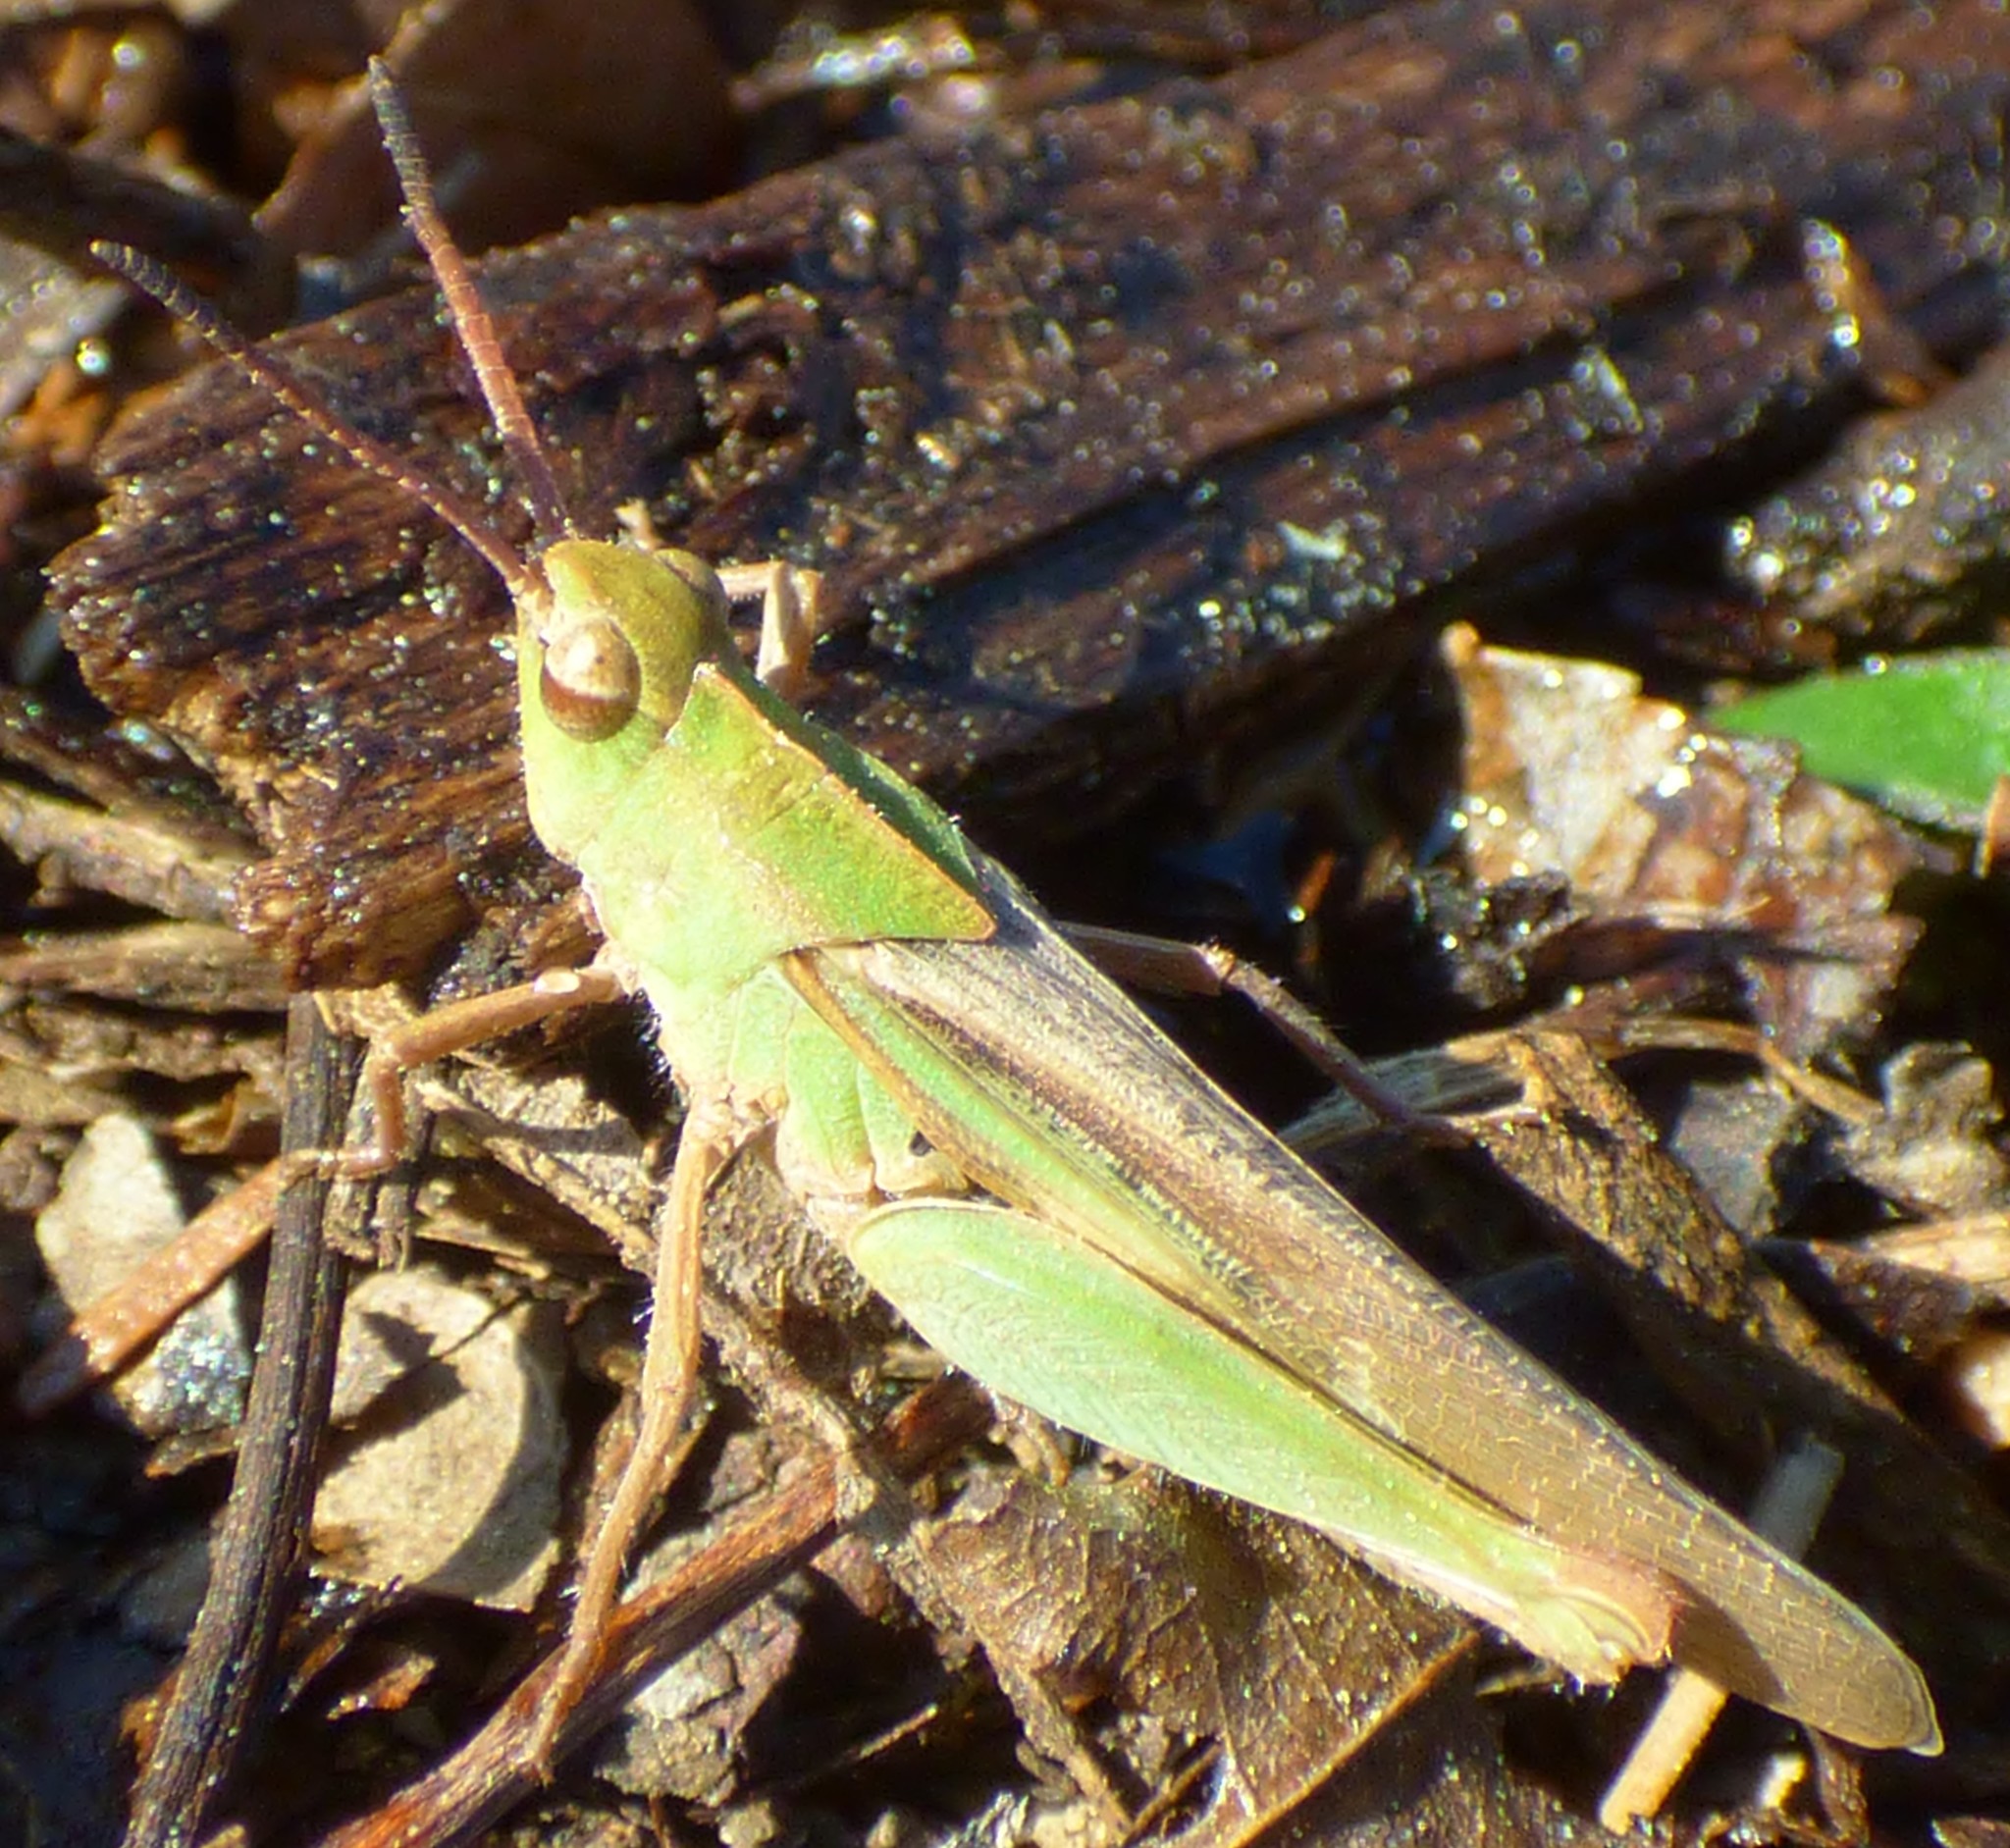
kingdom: Animalia
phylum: Arthropoda
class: Insecta
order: Orthoptera
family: Acrididae
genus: Chortophaga
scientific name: Chortophaga viridifasciata
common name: Green-striped grasshopper
